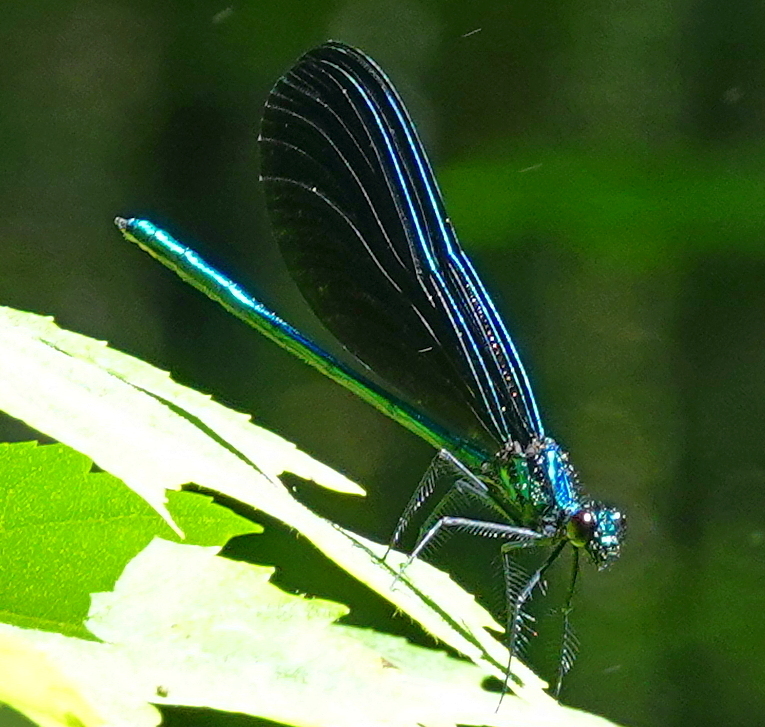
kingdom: Animalia
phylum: Arthropoda
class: Insecta
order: Odonata
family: Calopterygidae
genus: Calopteryx
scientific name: Calopteryx maculata
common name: Ebony jewelwing
